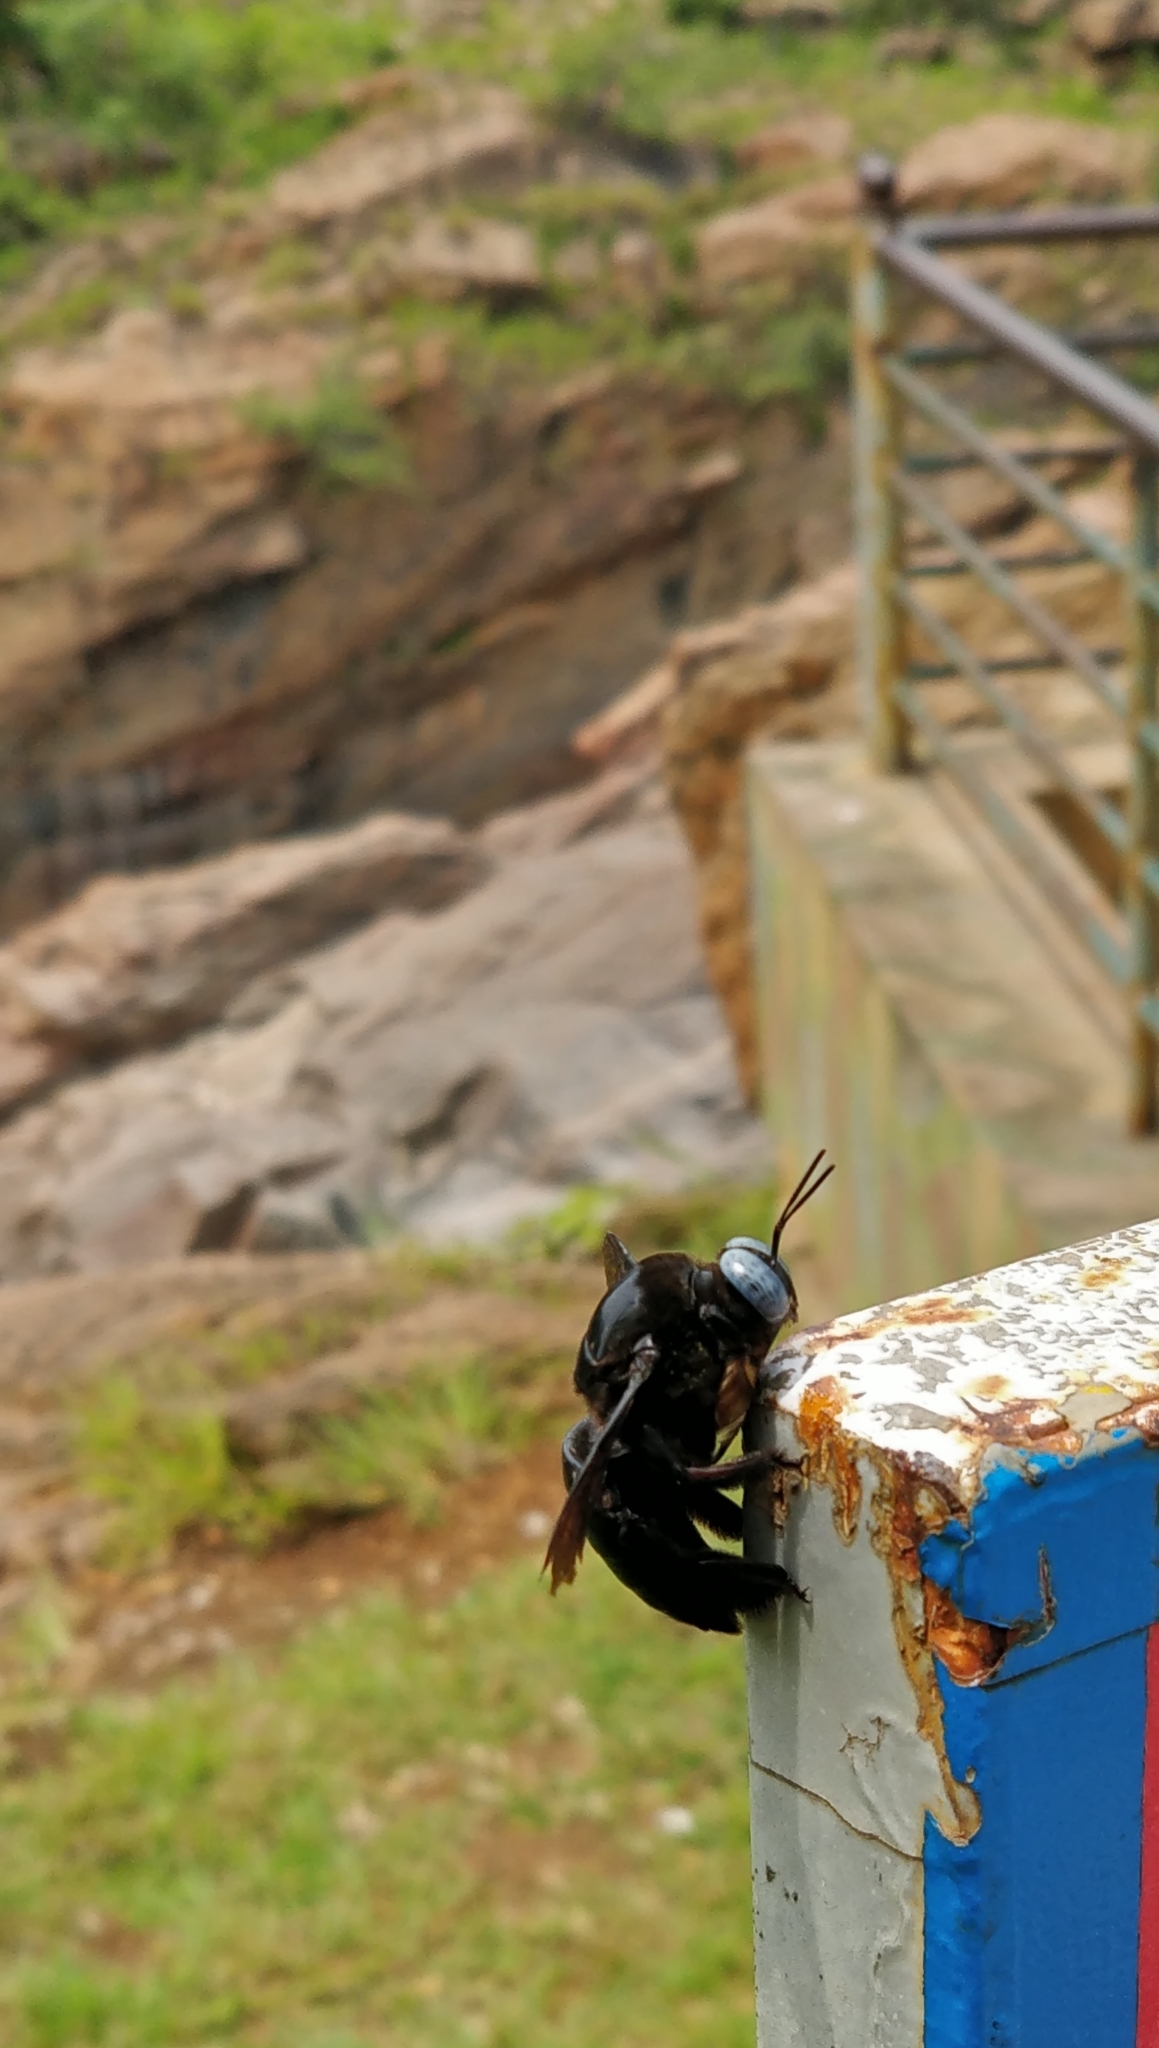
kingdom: Animalia
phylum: Arthropoda
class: Insecta
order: Hymenoptera
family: Apidae
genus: Xylocopa
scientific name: Xylocopa tenuiscapa
